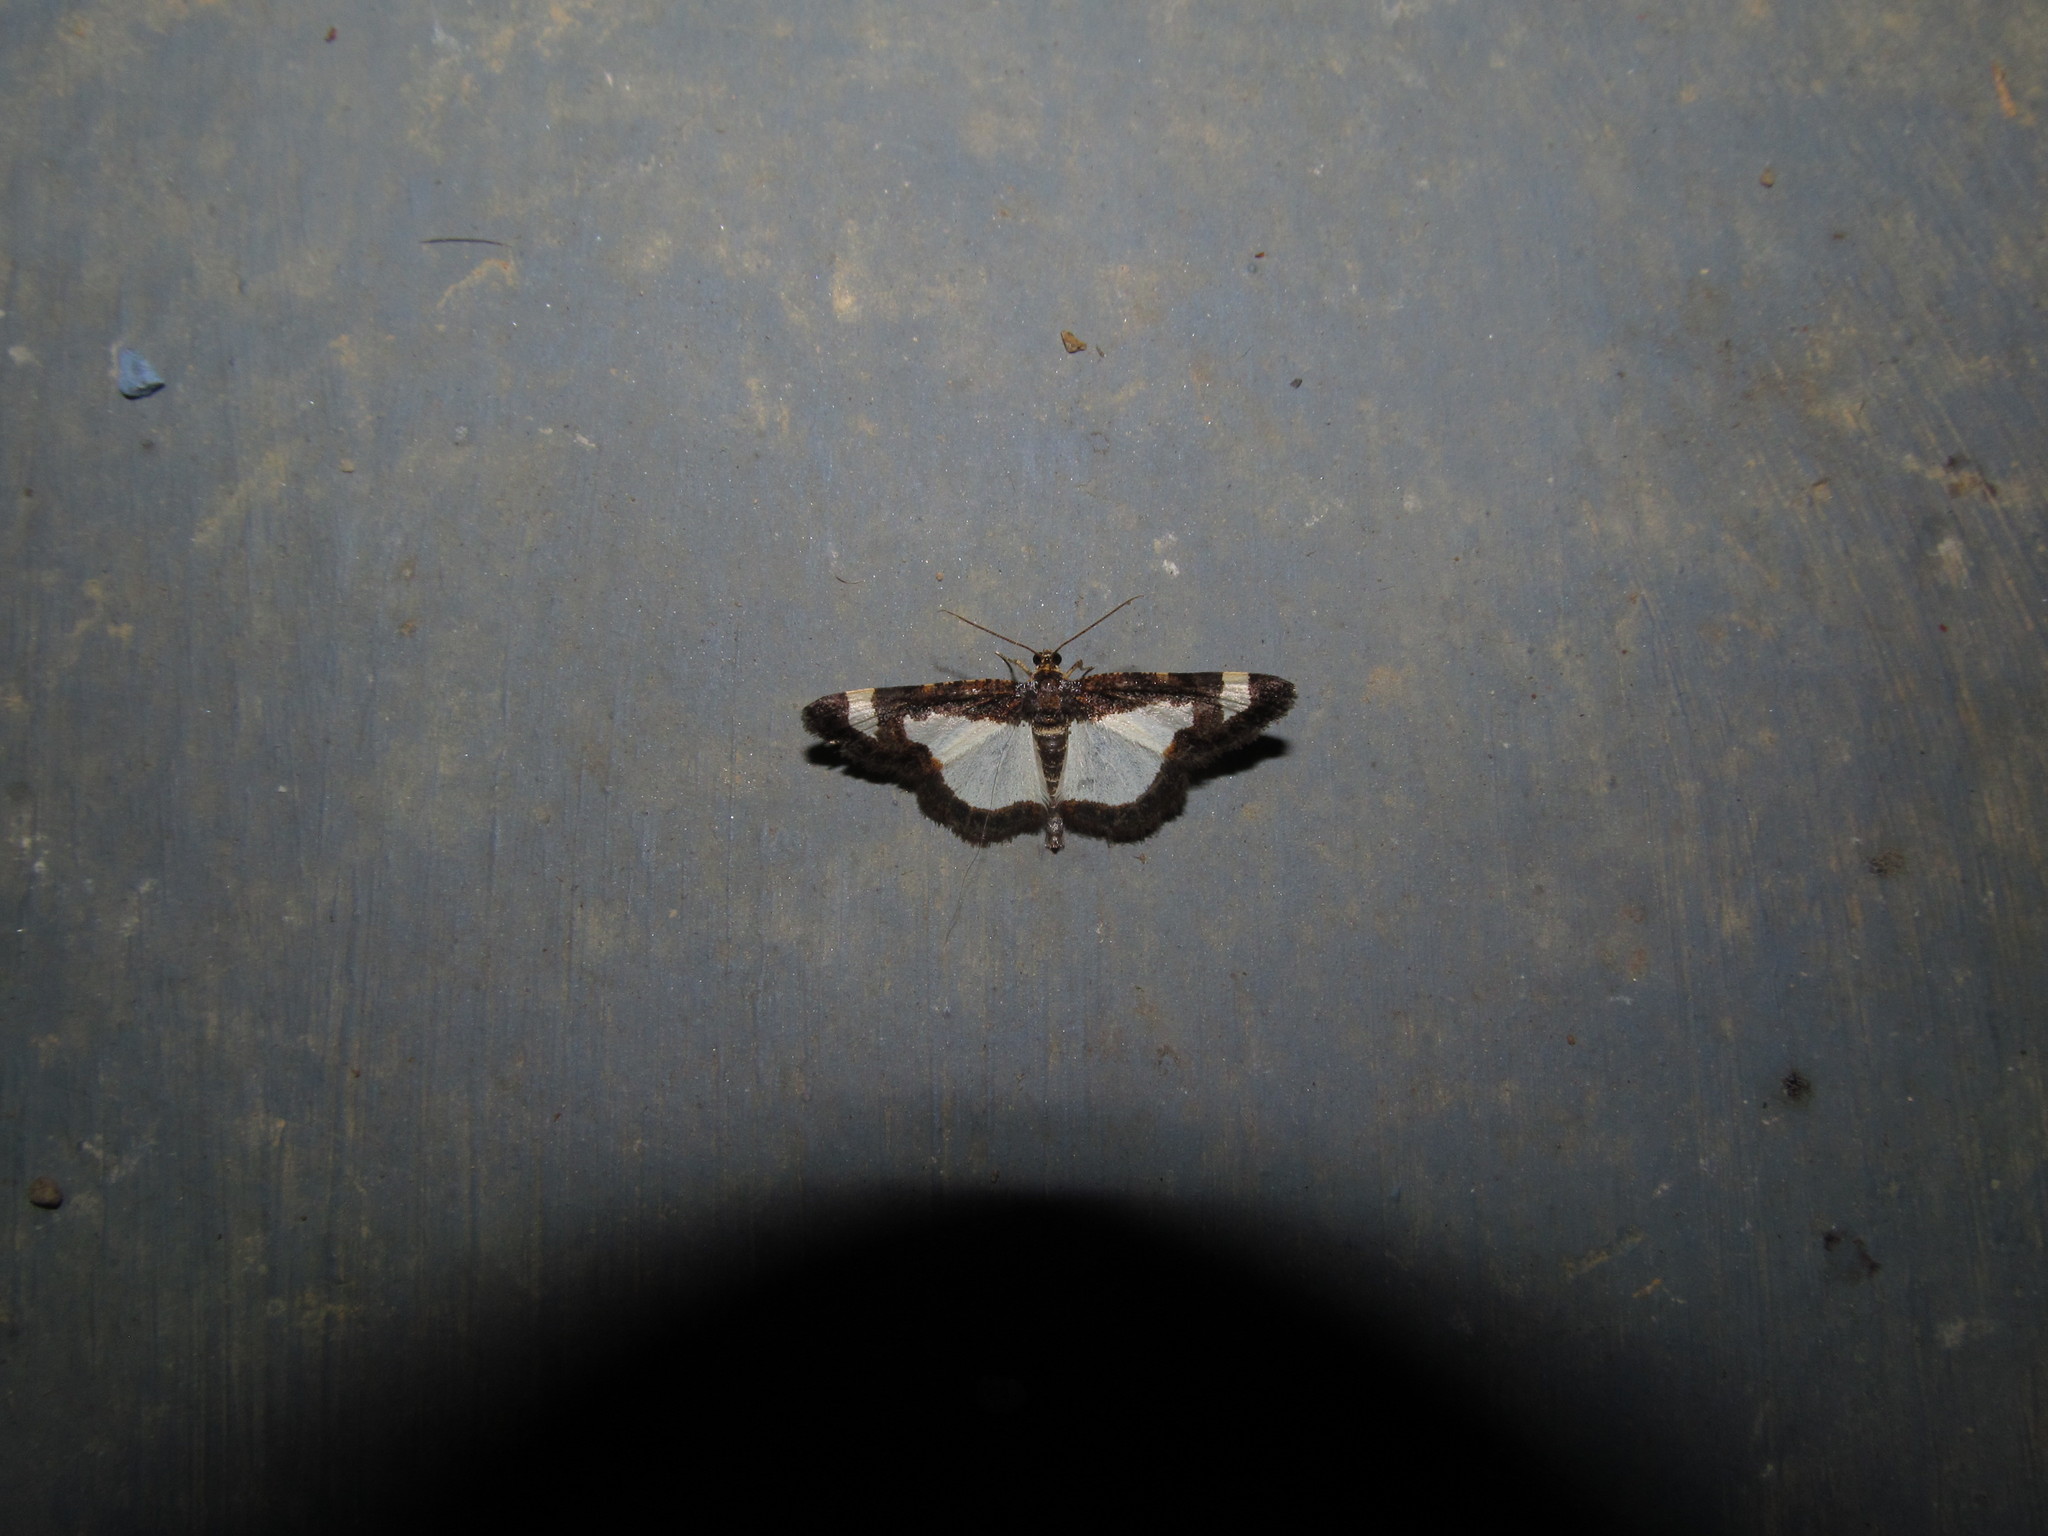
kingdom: Animalia
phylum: Arthropoda
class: Insecta
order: Lepidoptera
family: Geometridae
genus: Heliomata
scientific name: Heliomata cycladata
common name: Common spring moth
